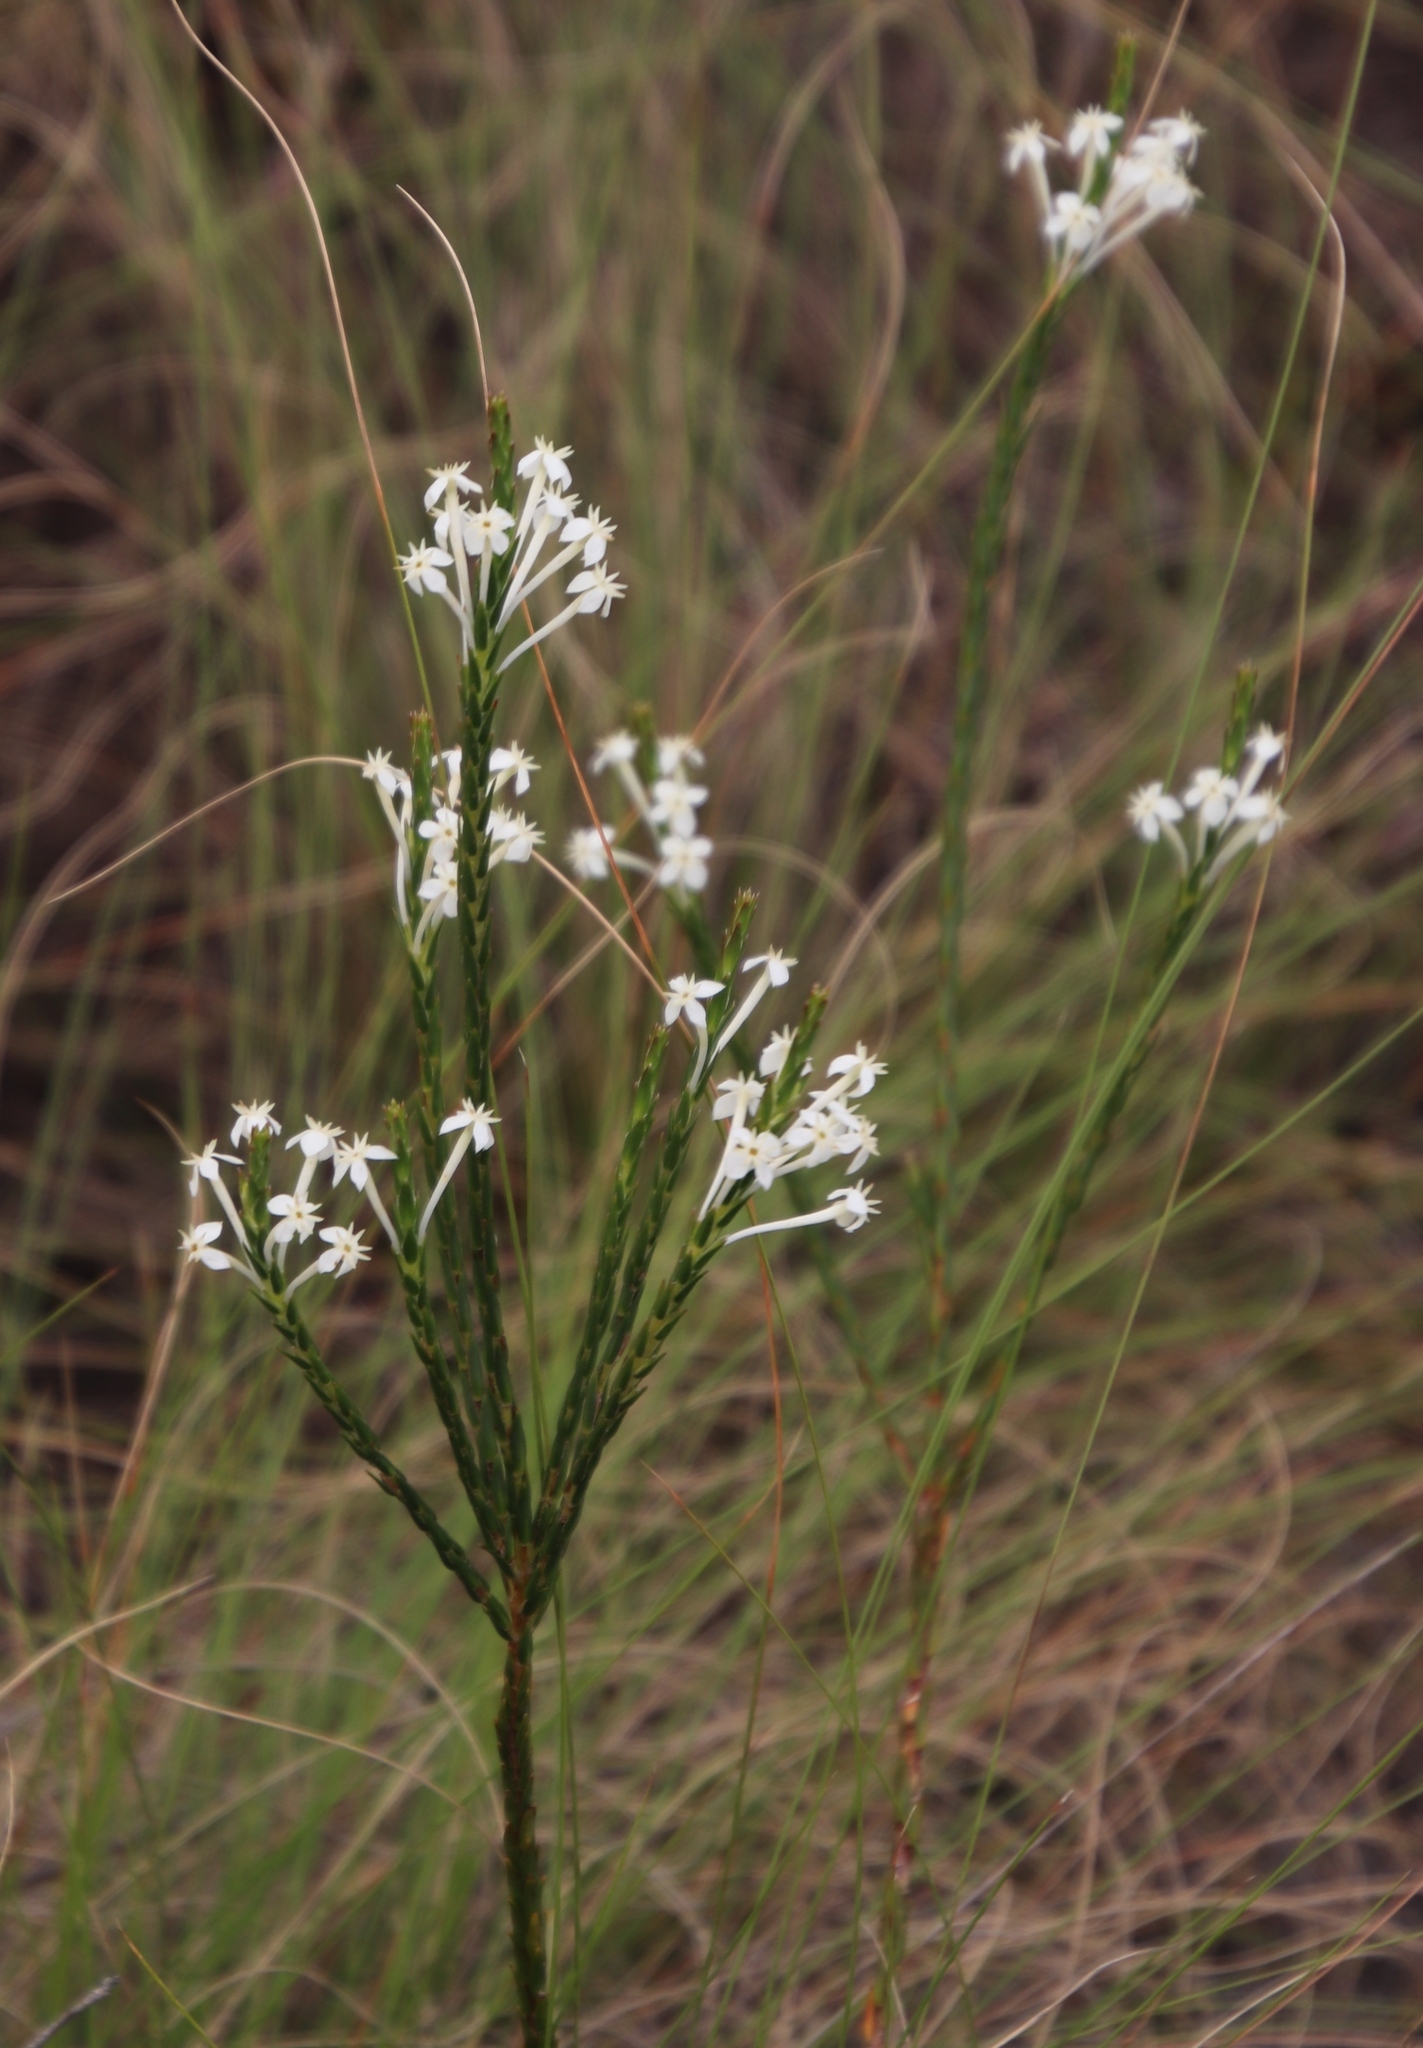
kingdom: Plantae
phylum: Tracheophyta
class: Magnoliopsida
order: Malvales
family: Thymelaeaceae
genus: Struthiola
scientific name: Struthiola ciliata
